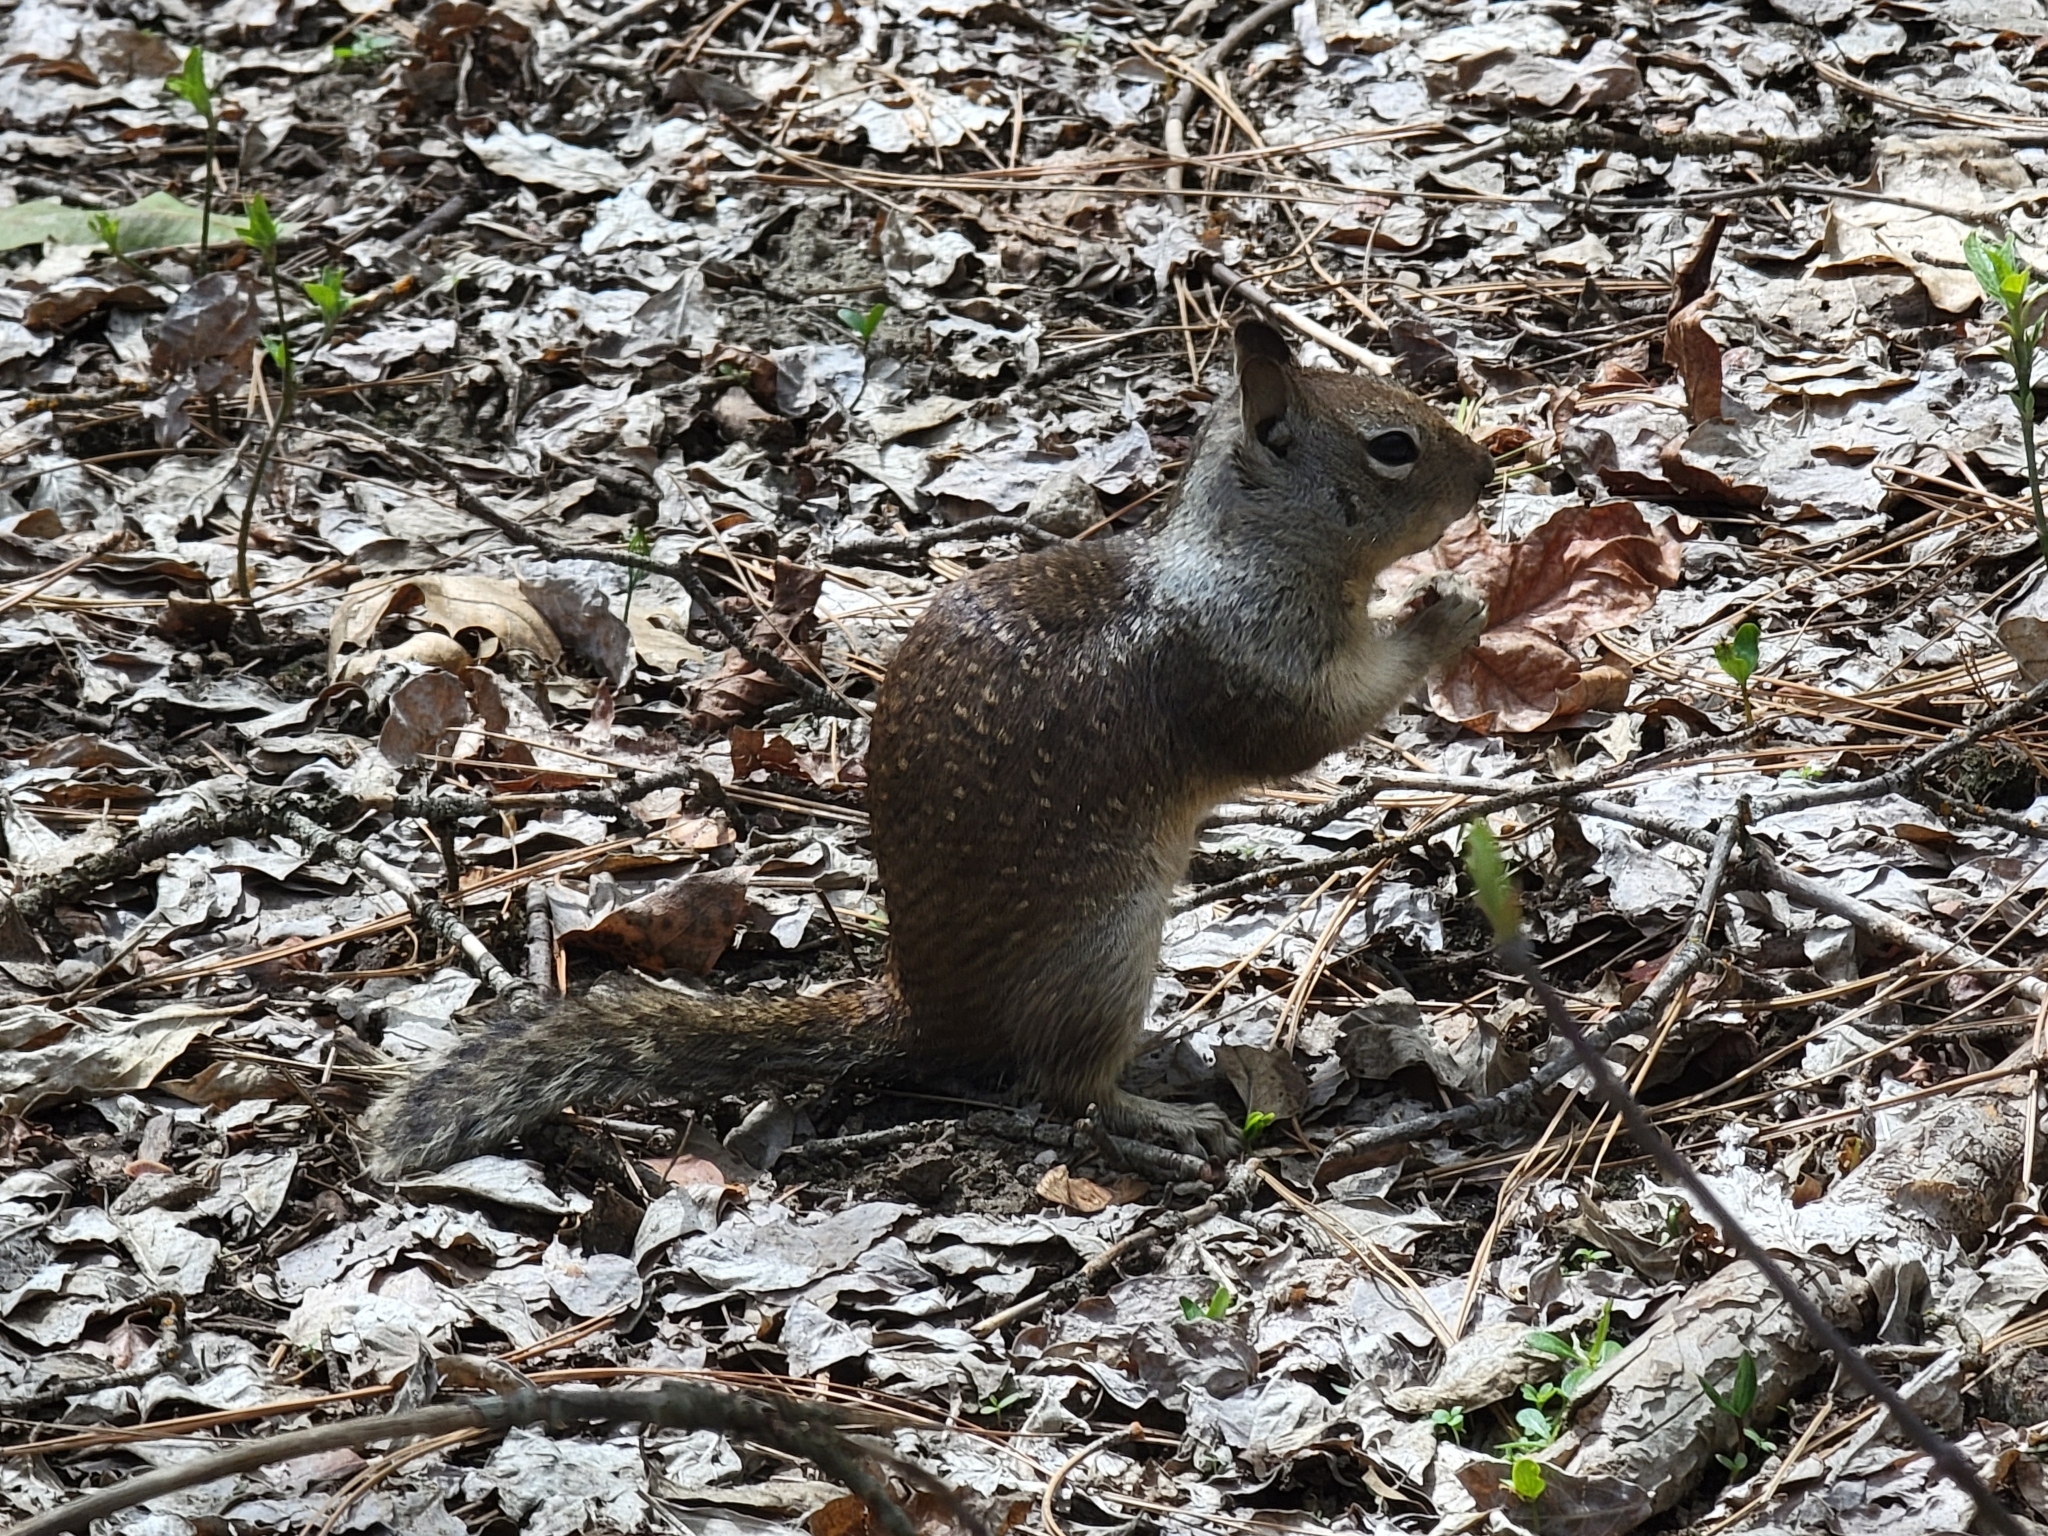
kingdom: Animalia
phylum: Chordata
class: Mammalia
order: Rodentia
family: Sciuridae
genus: Otospermophilus
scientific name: Otospermophilus beecheyi
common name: California ground squirrel
